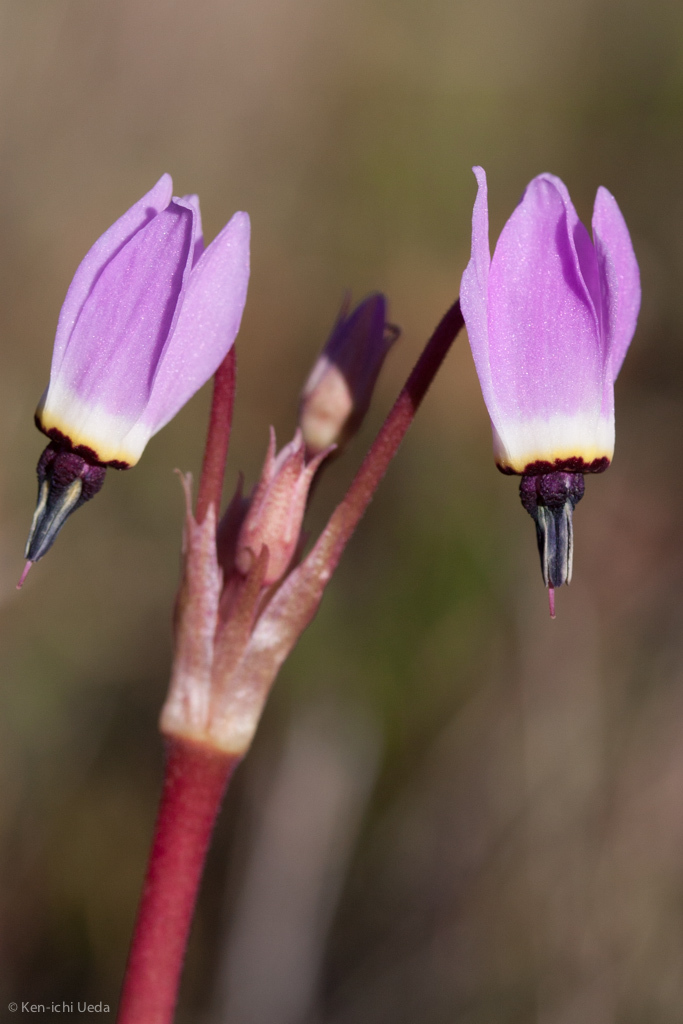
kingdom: Plantae
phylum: Tracheophyta
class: Magnoliopsida
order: Ericales
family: Primulaceae
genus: Dodecatheon
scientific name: Dodecatheon hendersonii
